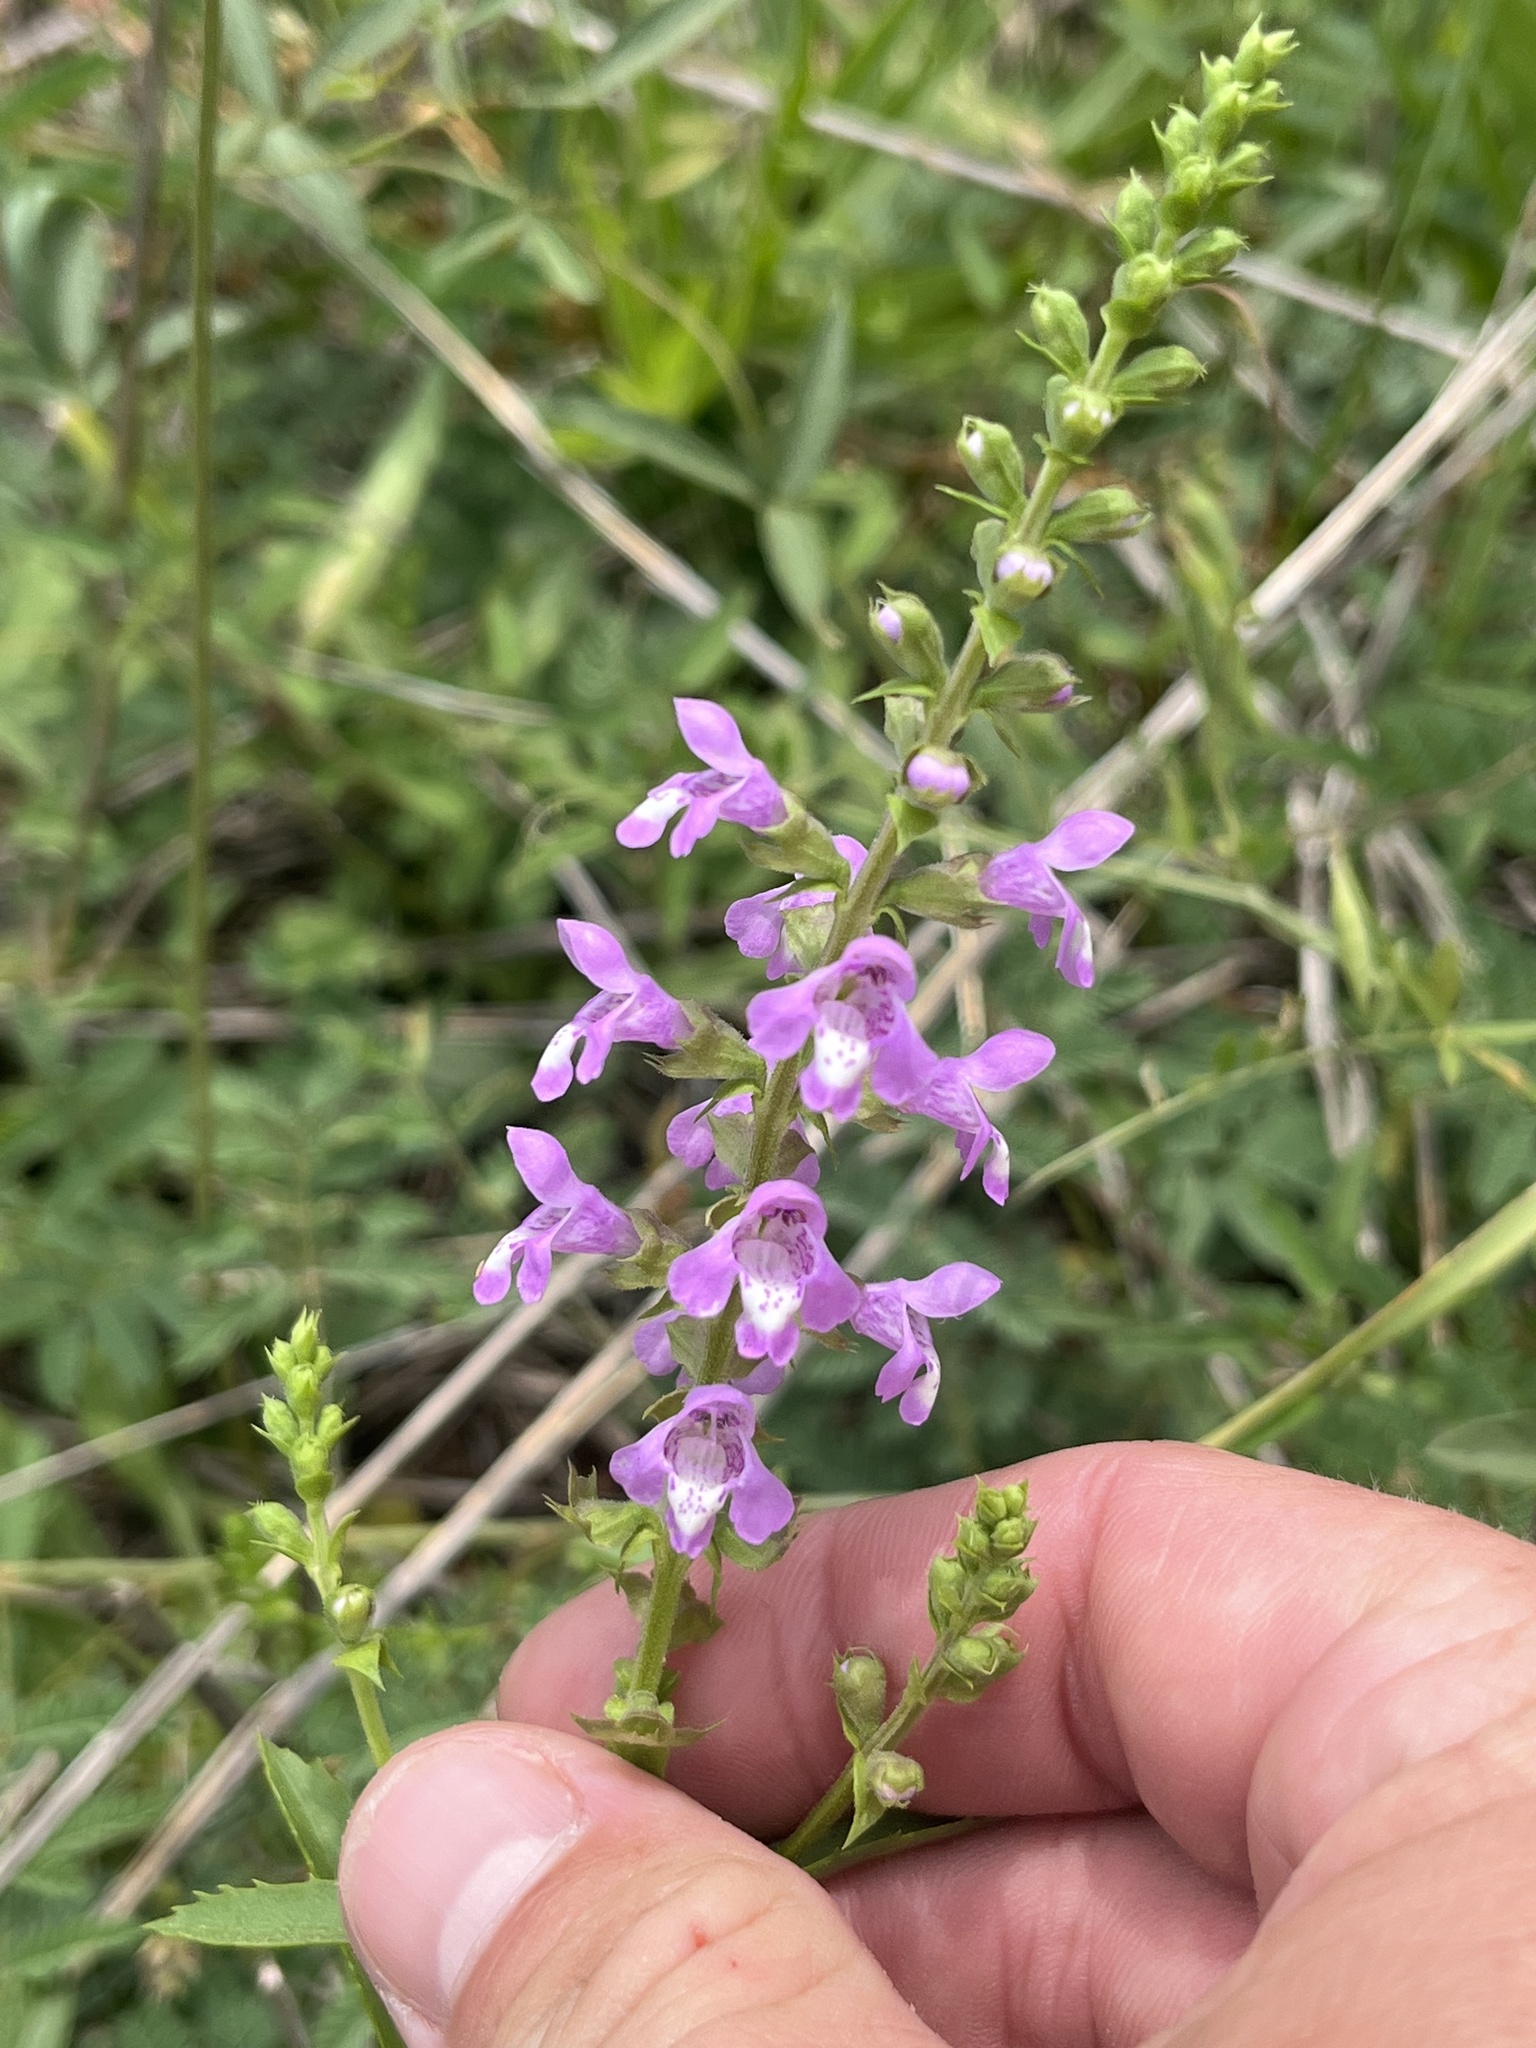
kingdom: Plantae
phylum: Tracheophyta
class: Magnoliopsida
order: Lamiales
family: Lamiaceae
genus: Warnockia
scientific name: Warnockia scutellarioides
